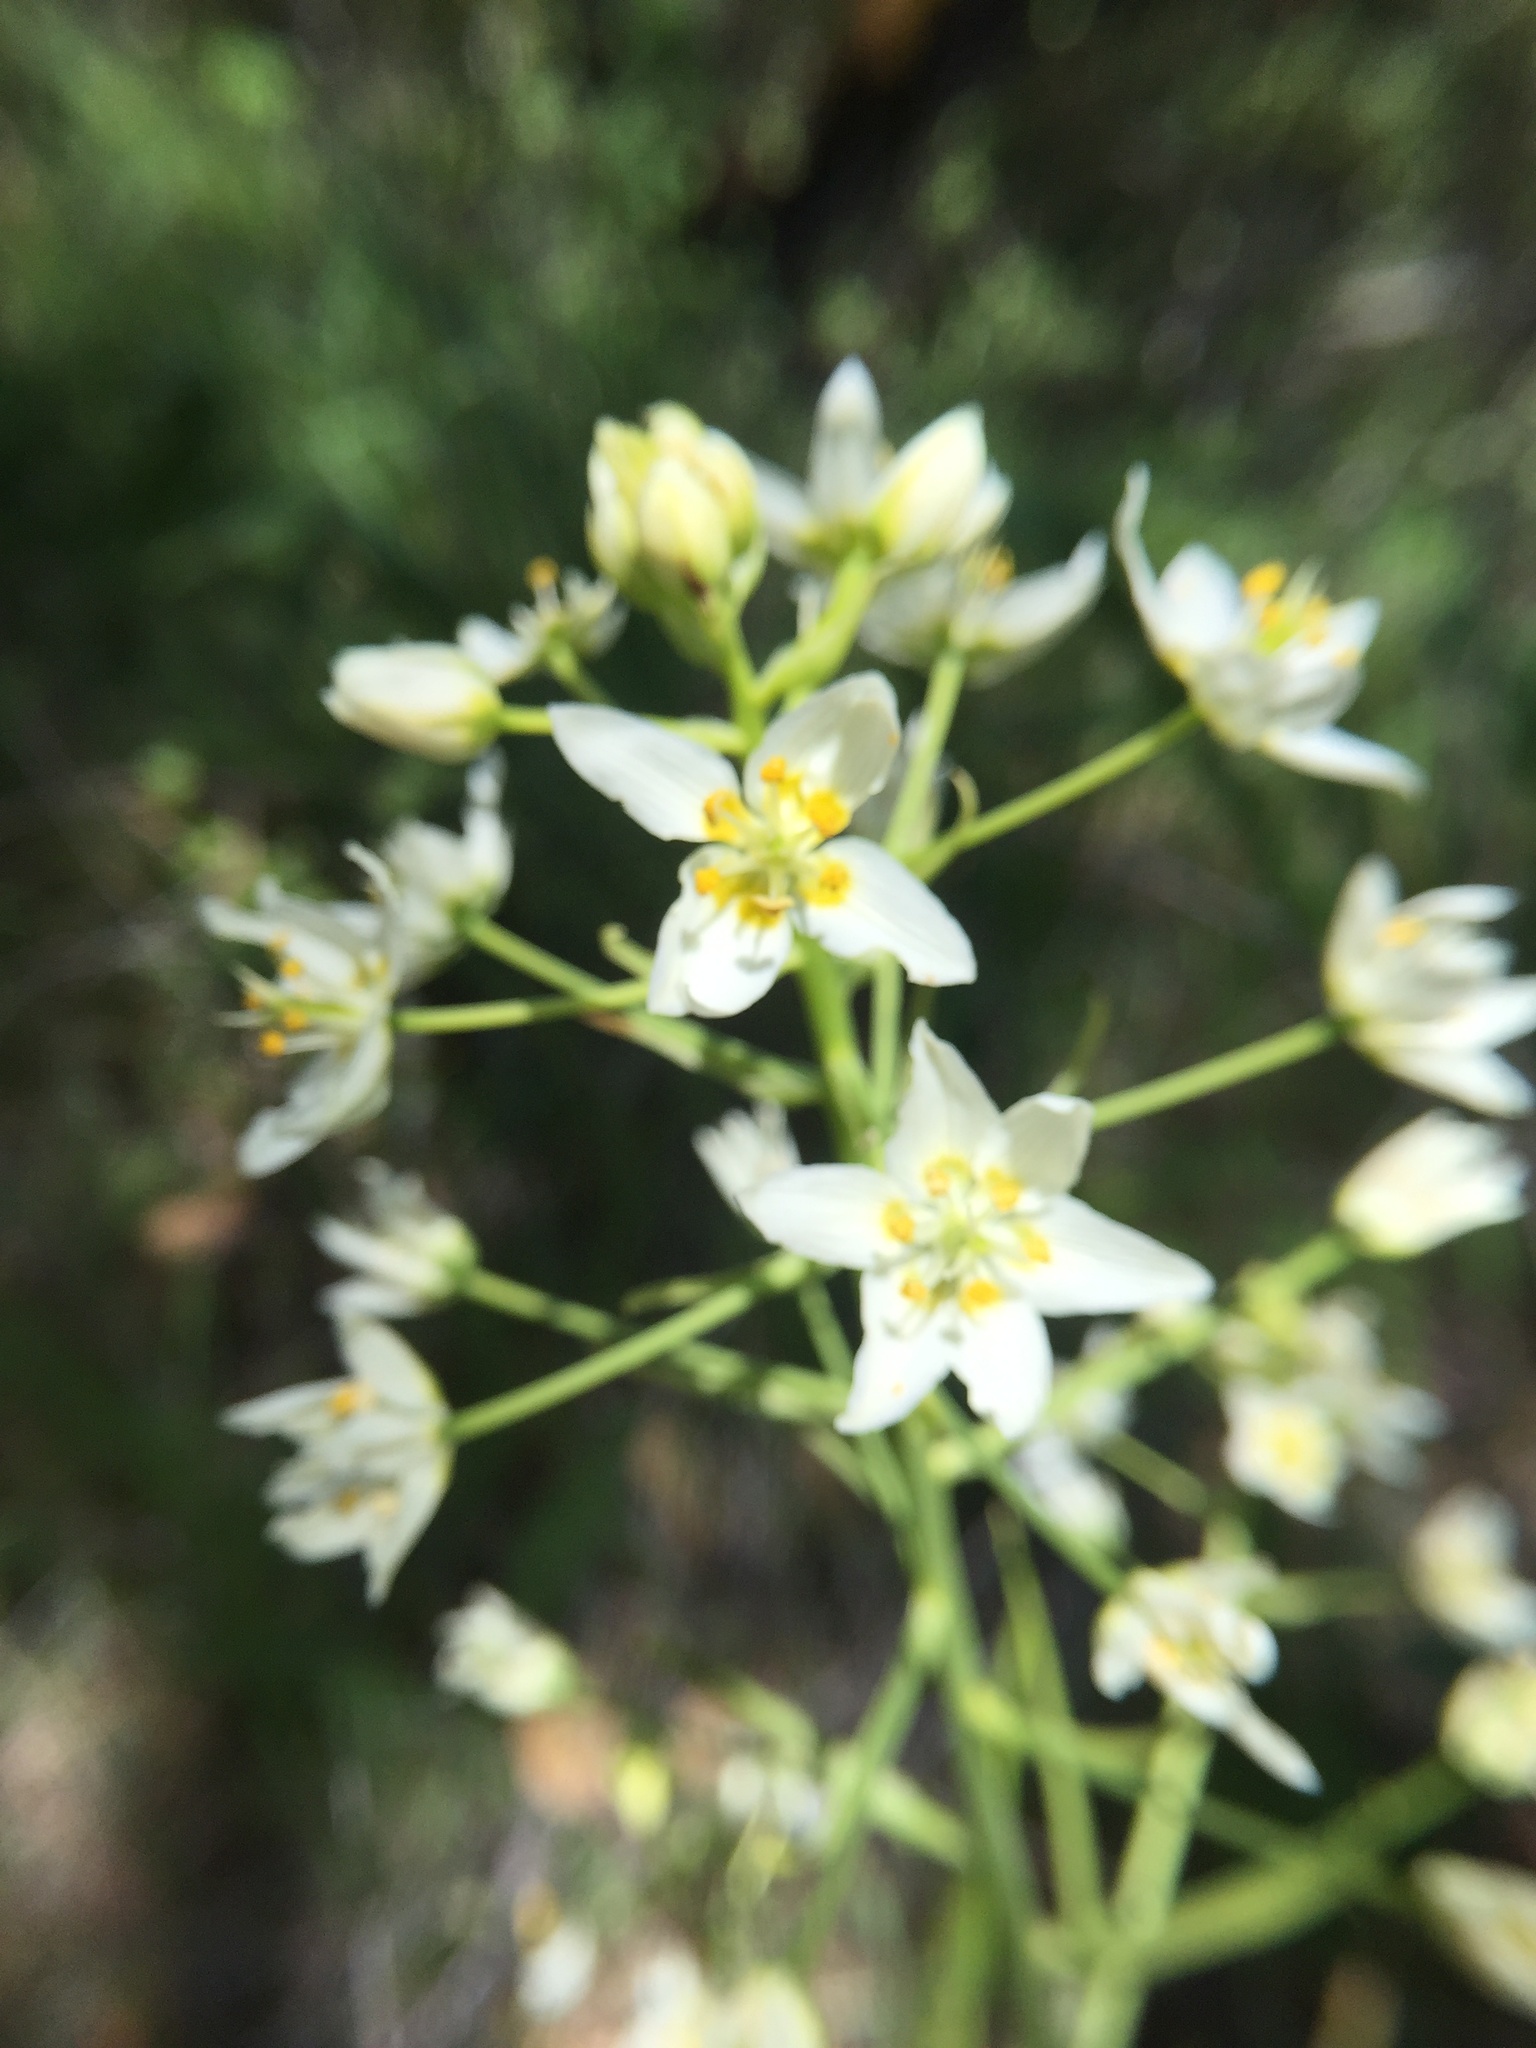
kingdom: Plantae
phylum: Tracheophyta
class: Liliopsida
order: Liliales
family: Melanthiaceae
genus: Toxicoscordion
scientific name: Toxicoscordion fremontii
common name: Fremont's death camas
